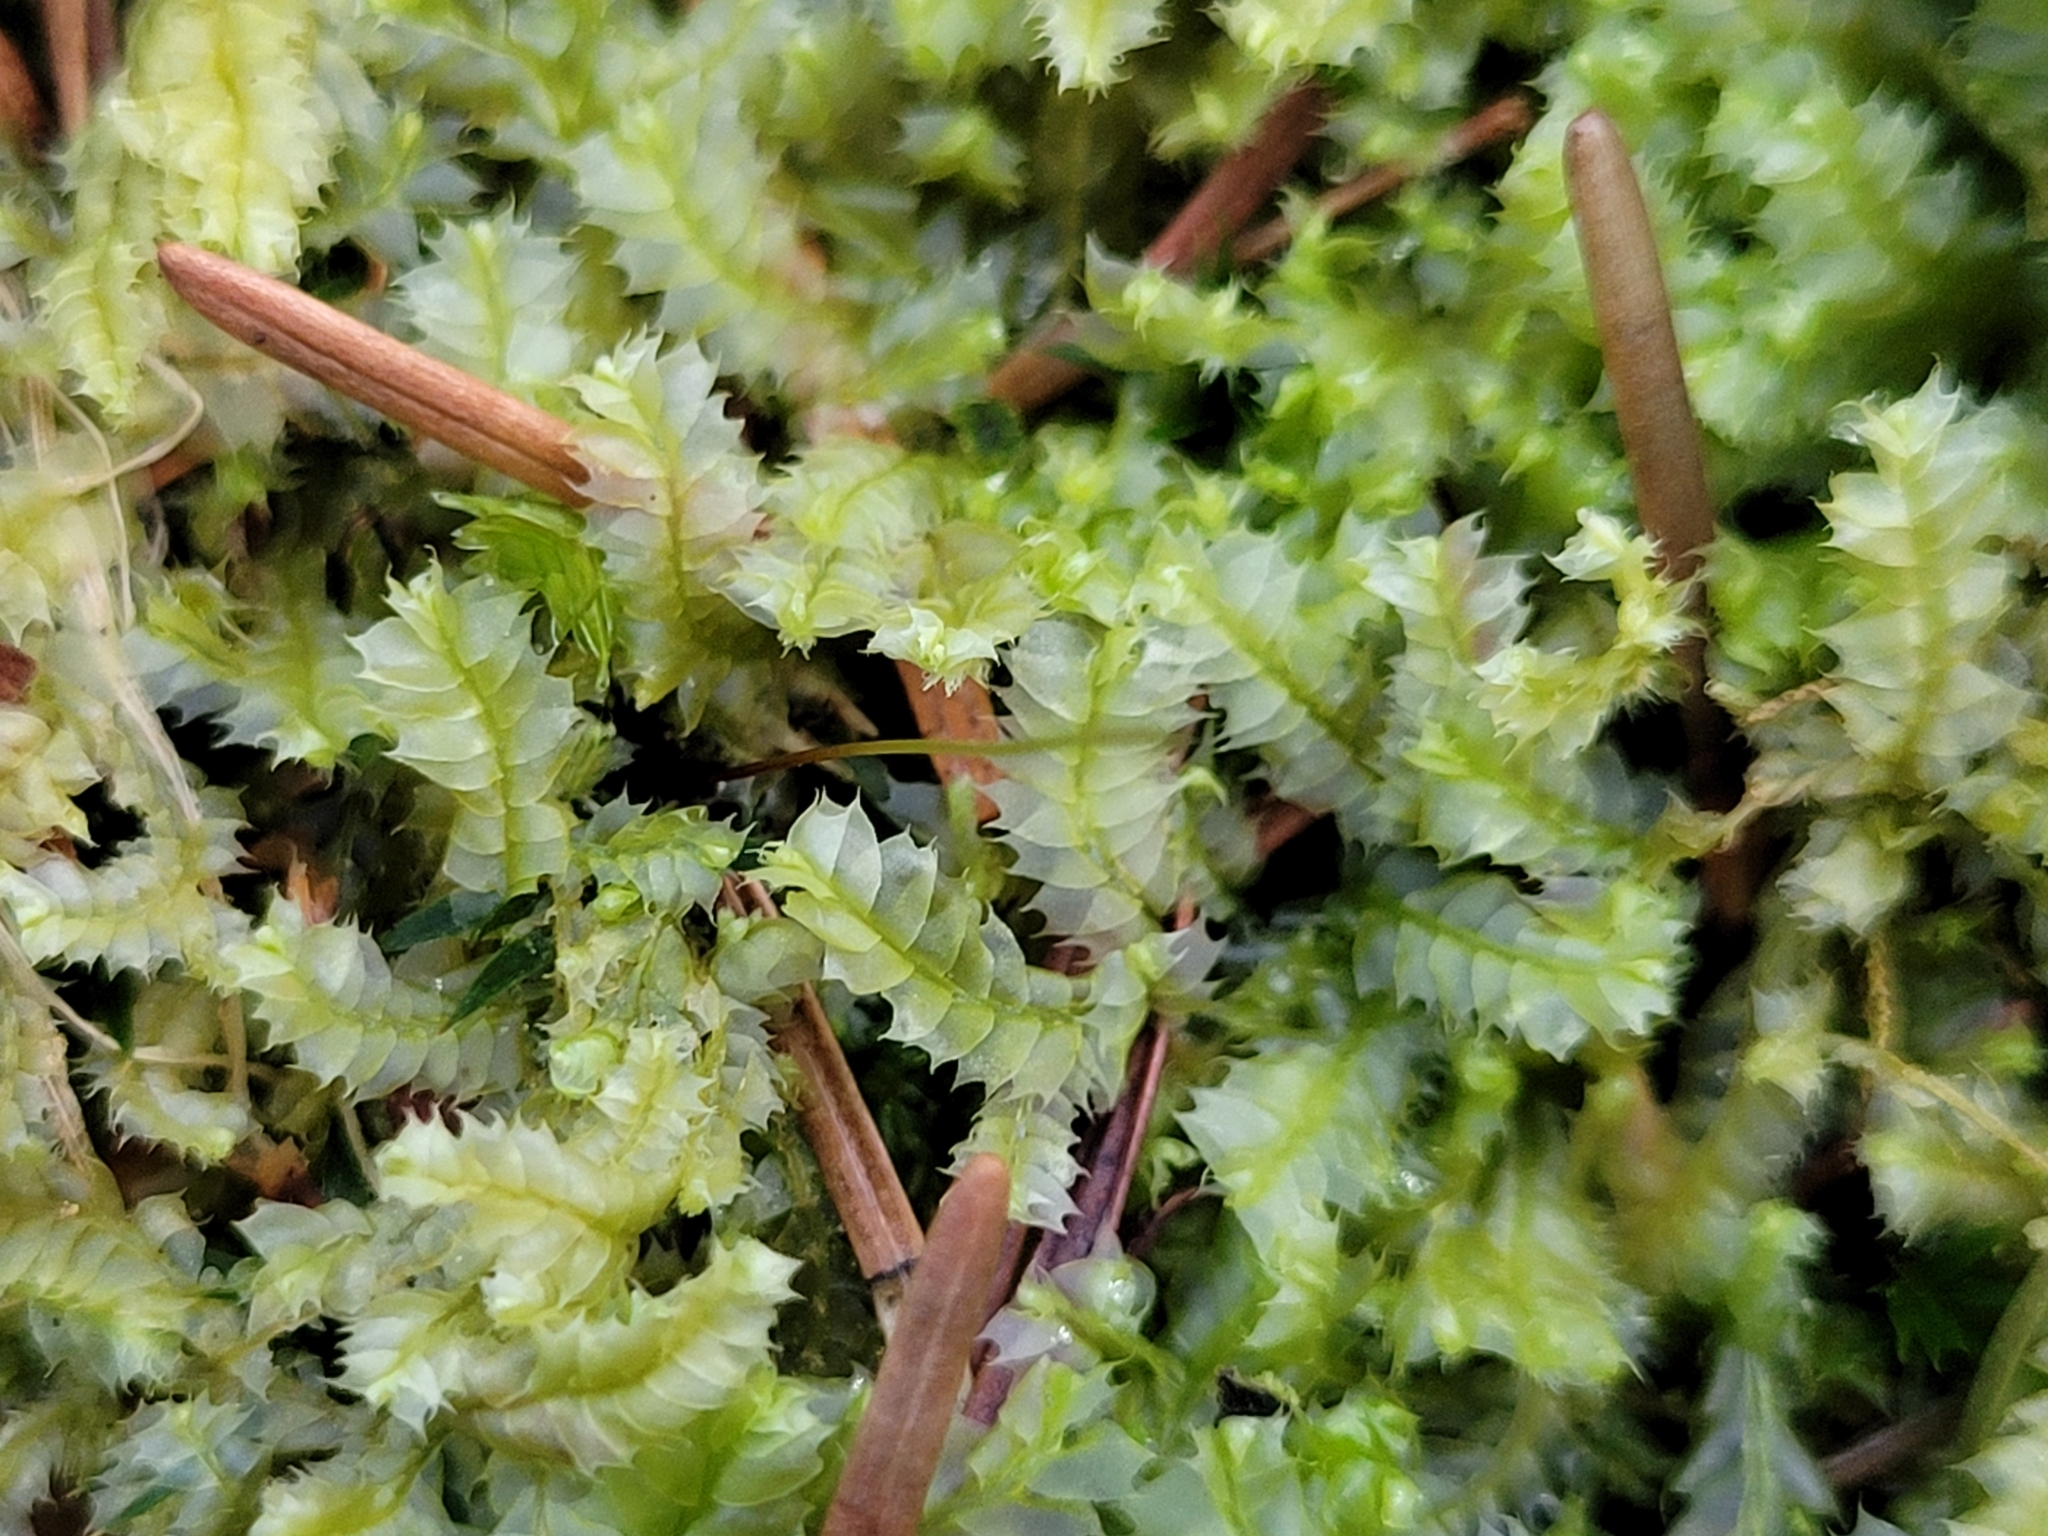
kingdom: Plantae
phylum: Marchantiophyta
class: Jungermanniopsida
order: Jungermanniales
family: Lophocoleaceae
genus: Lophocolea
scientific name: Lophocolea bidentata
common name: Bifid crestwort
